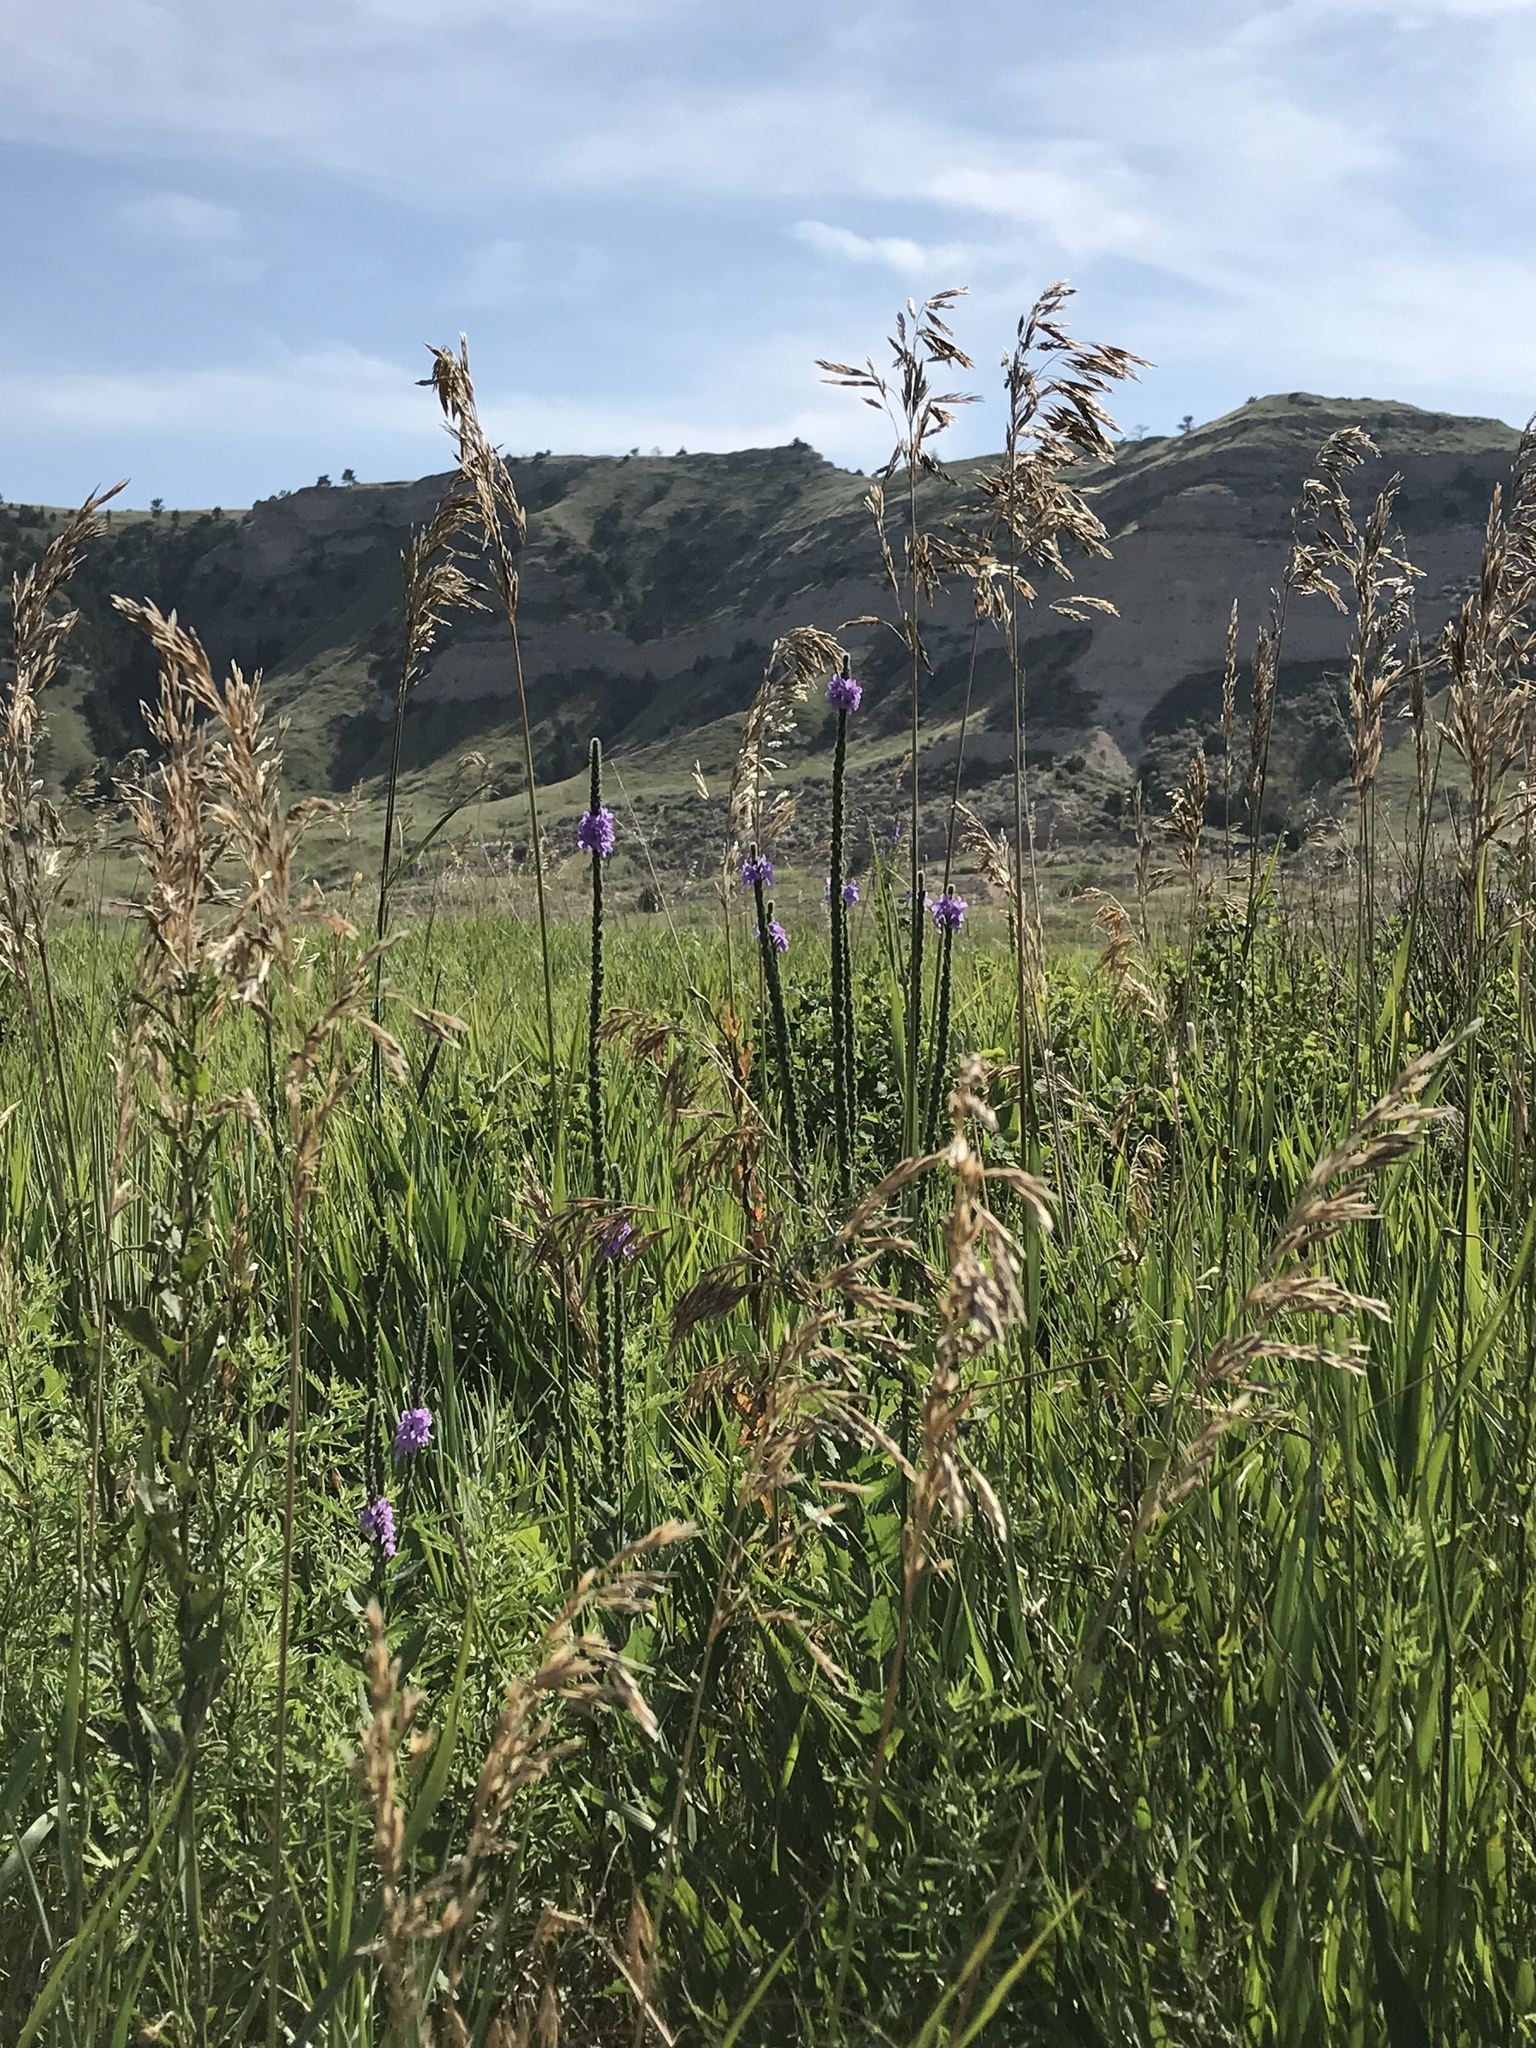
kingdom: Plantae
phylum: Tracheophyta
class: Liliopsida
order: Poales
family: Poaceae
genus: Bromus
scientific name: Bromus inermis
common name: Smooth brome
